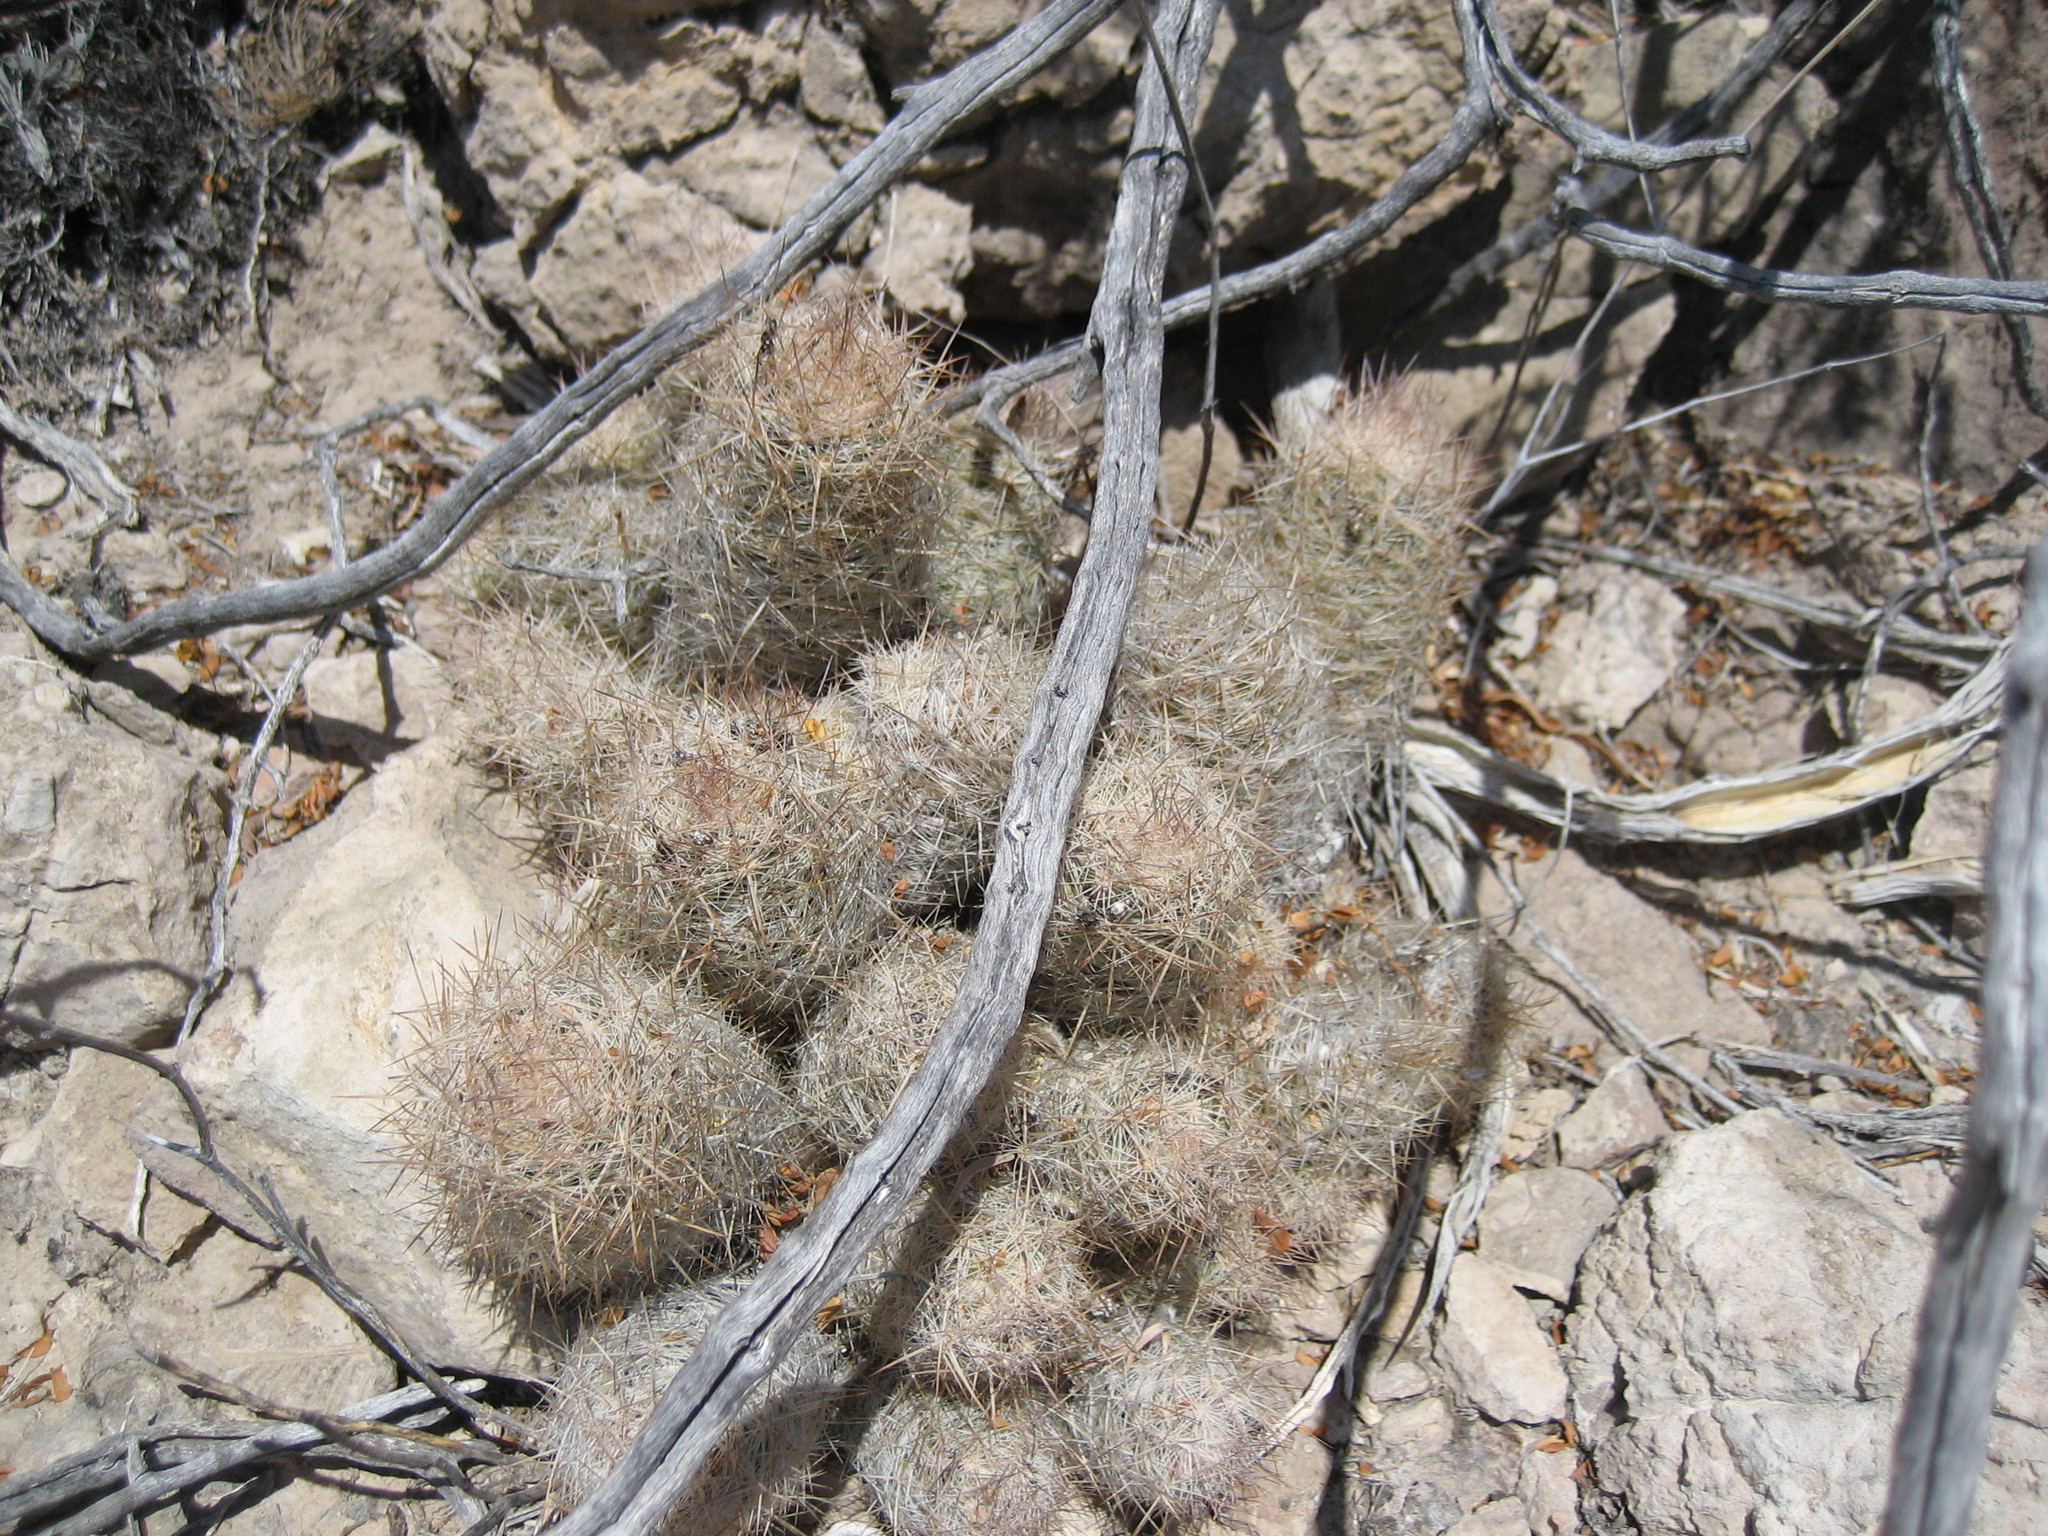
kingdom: Plantae
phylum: Tracheophyta
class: Magnoliopsida
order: Caryophyllales
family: Cactaceae
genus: Pelecyphora
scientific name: Pelecyphora tuberculosa
